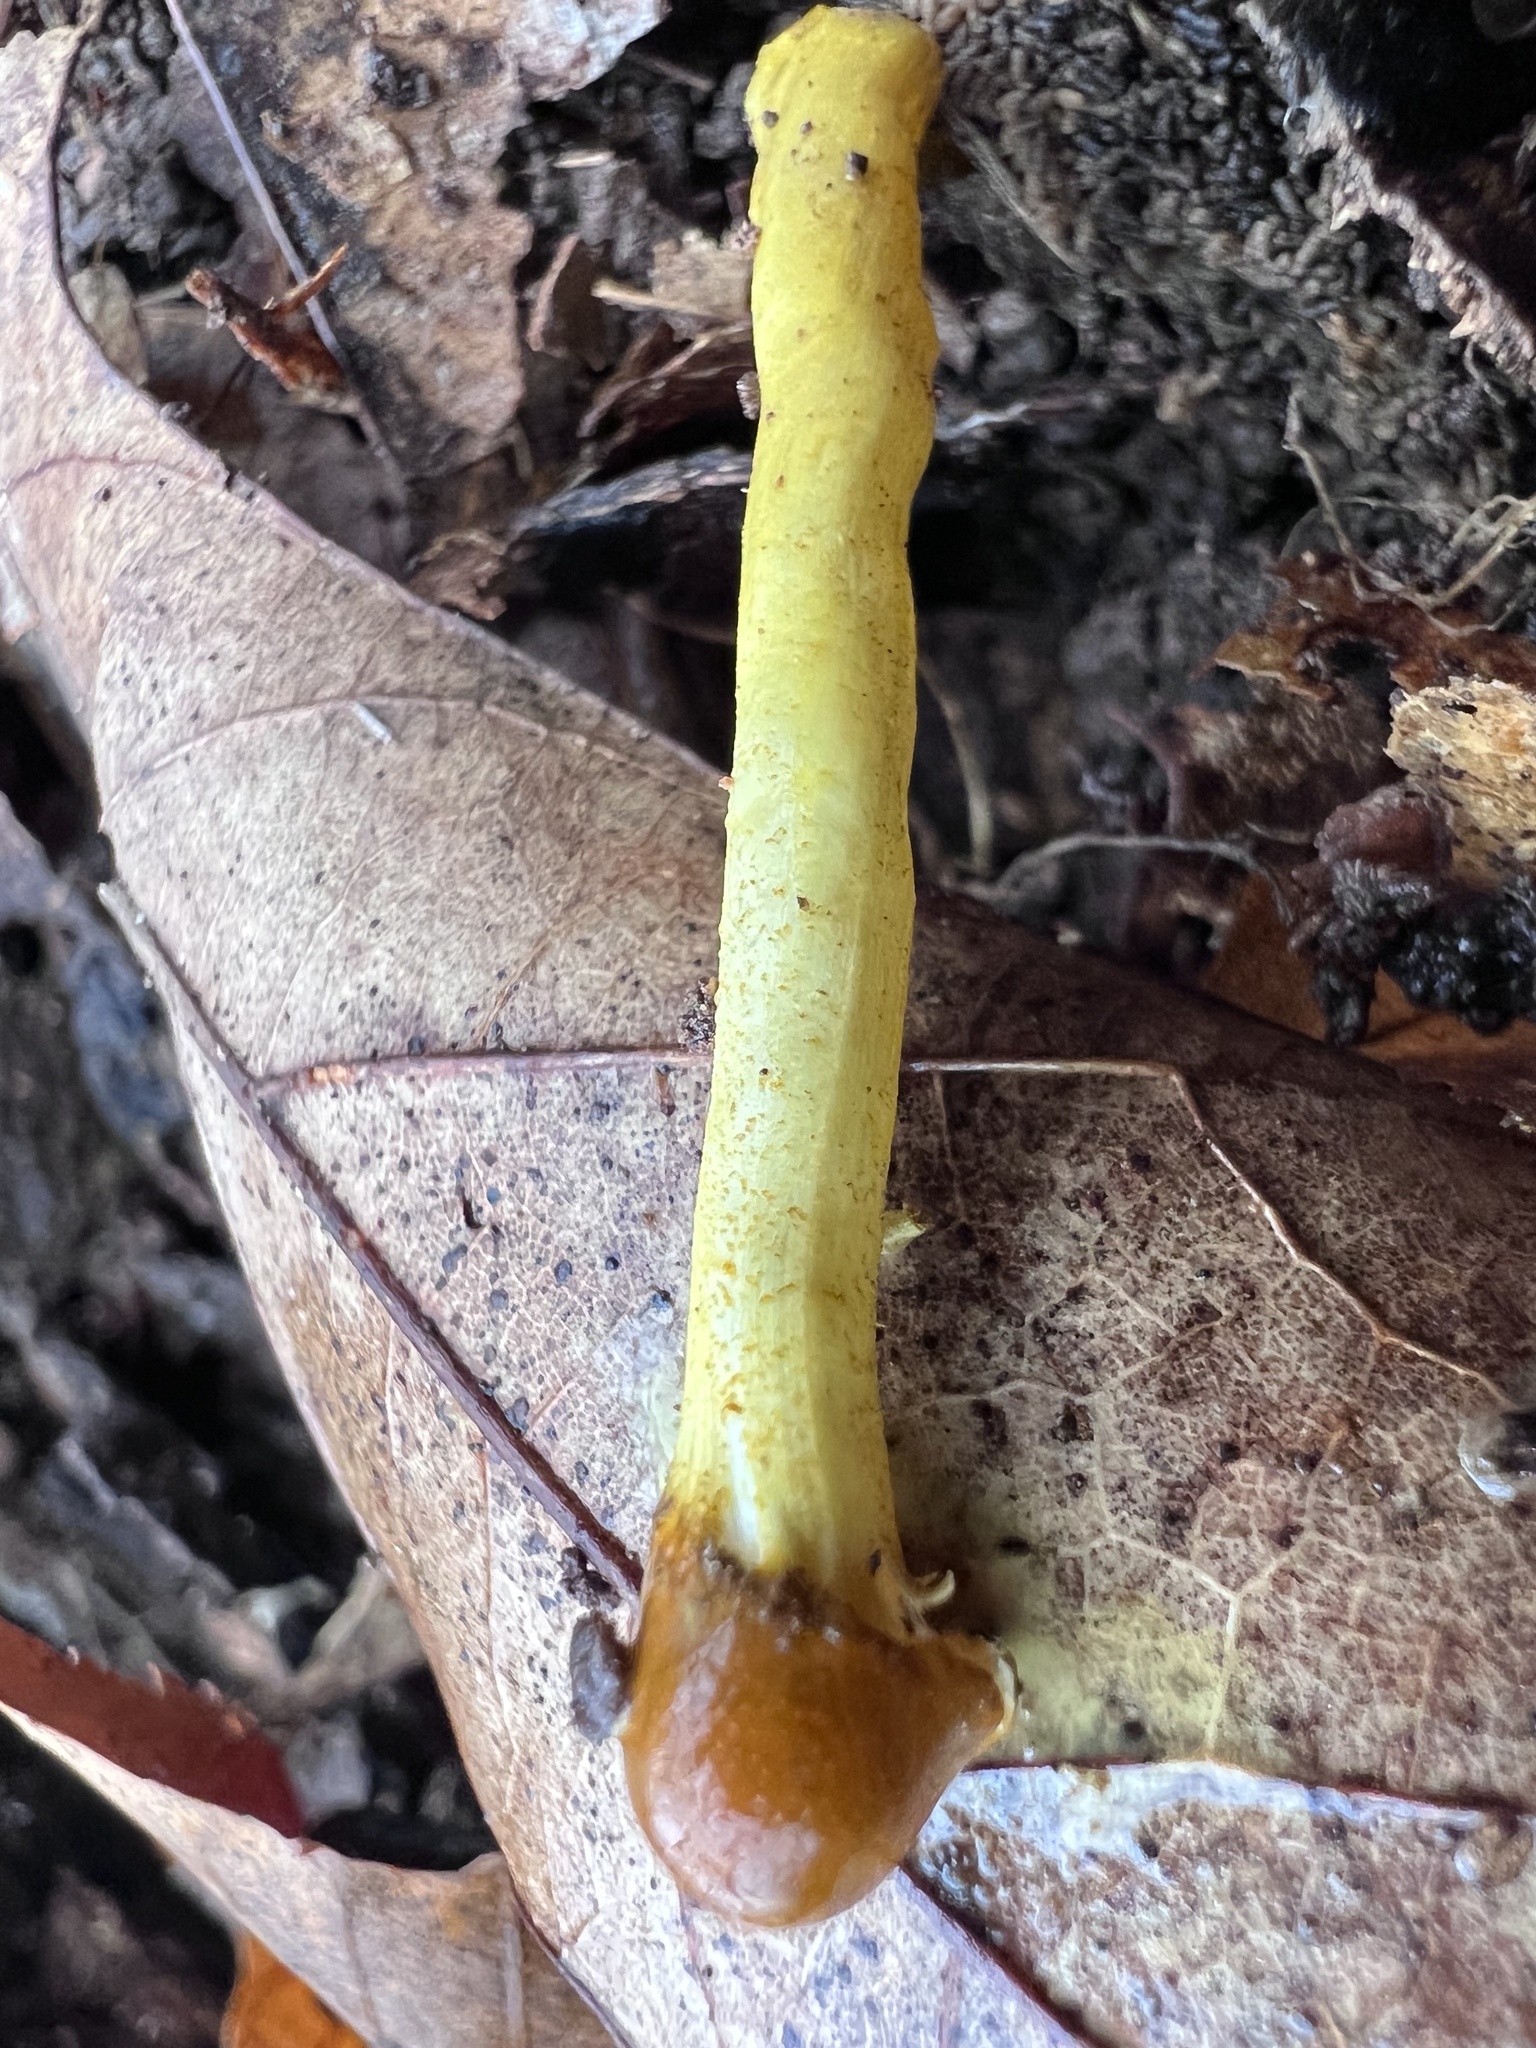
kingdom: Fungi
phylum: Ascomycota
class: Sordariomycetes
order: Hypocreales
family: Ophiocordycipitaceae
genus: Tolypocladium
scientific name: Tolypocladium longisegmentatum
